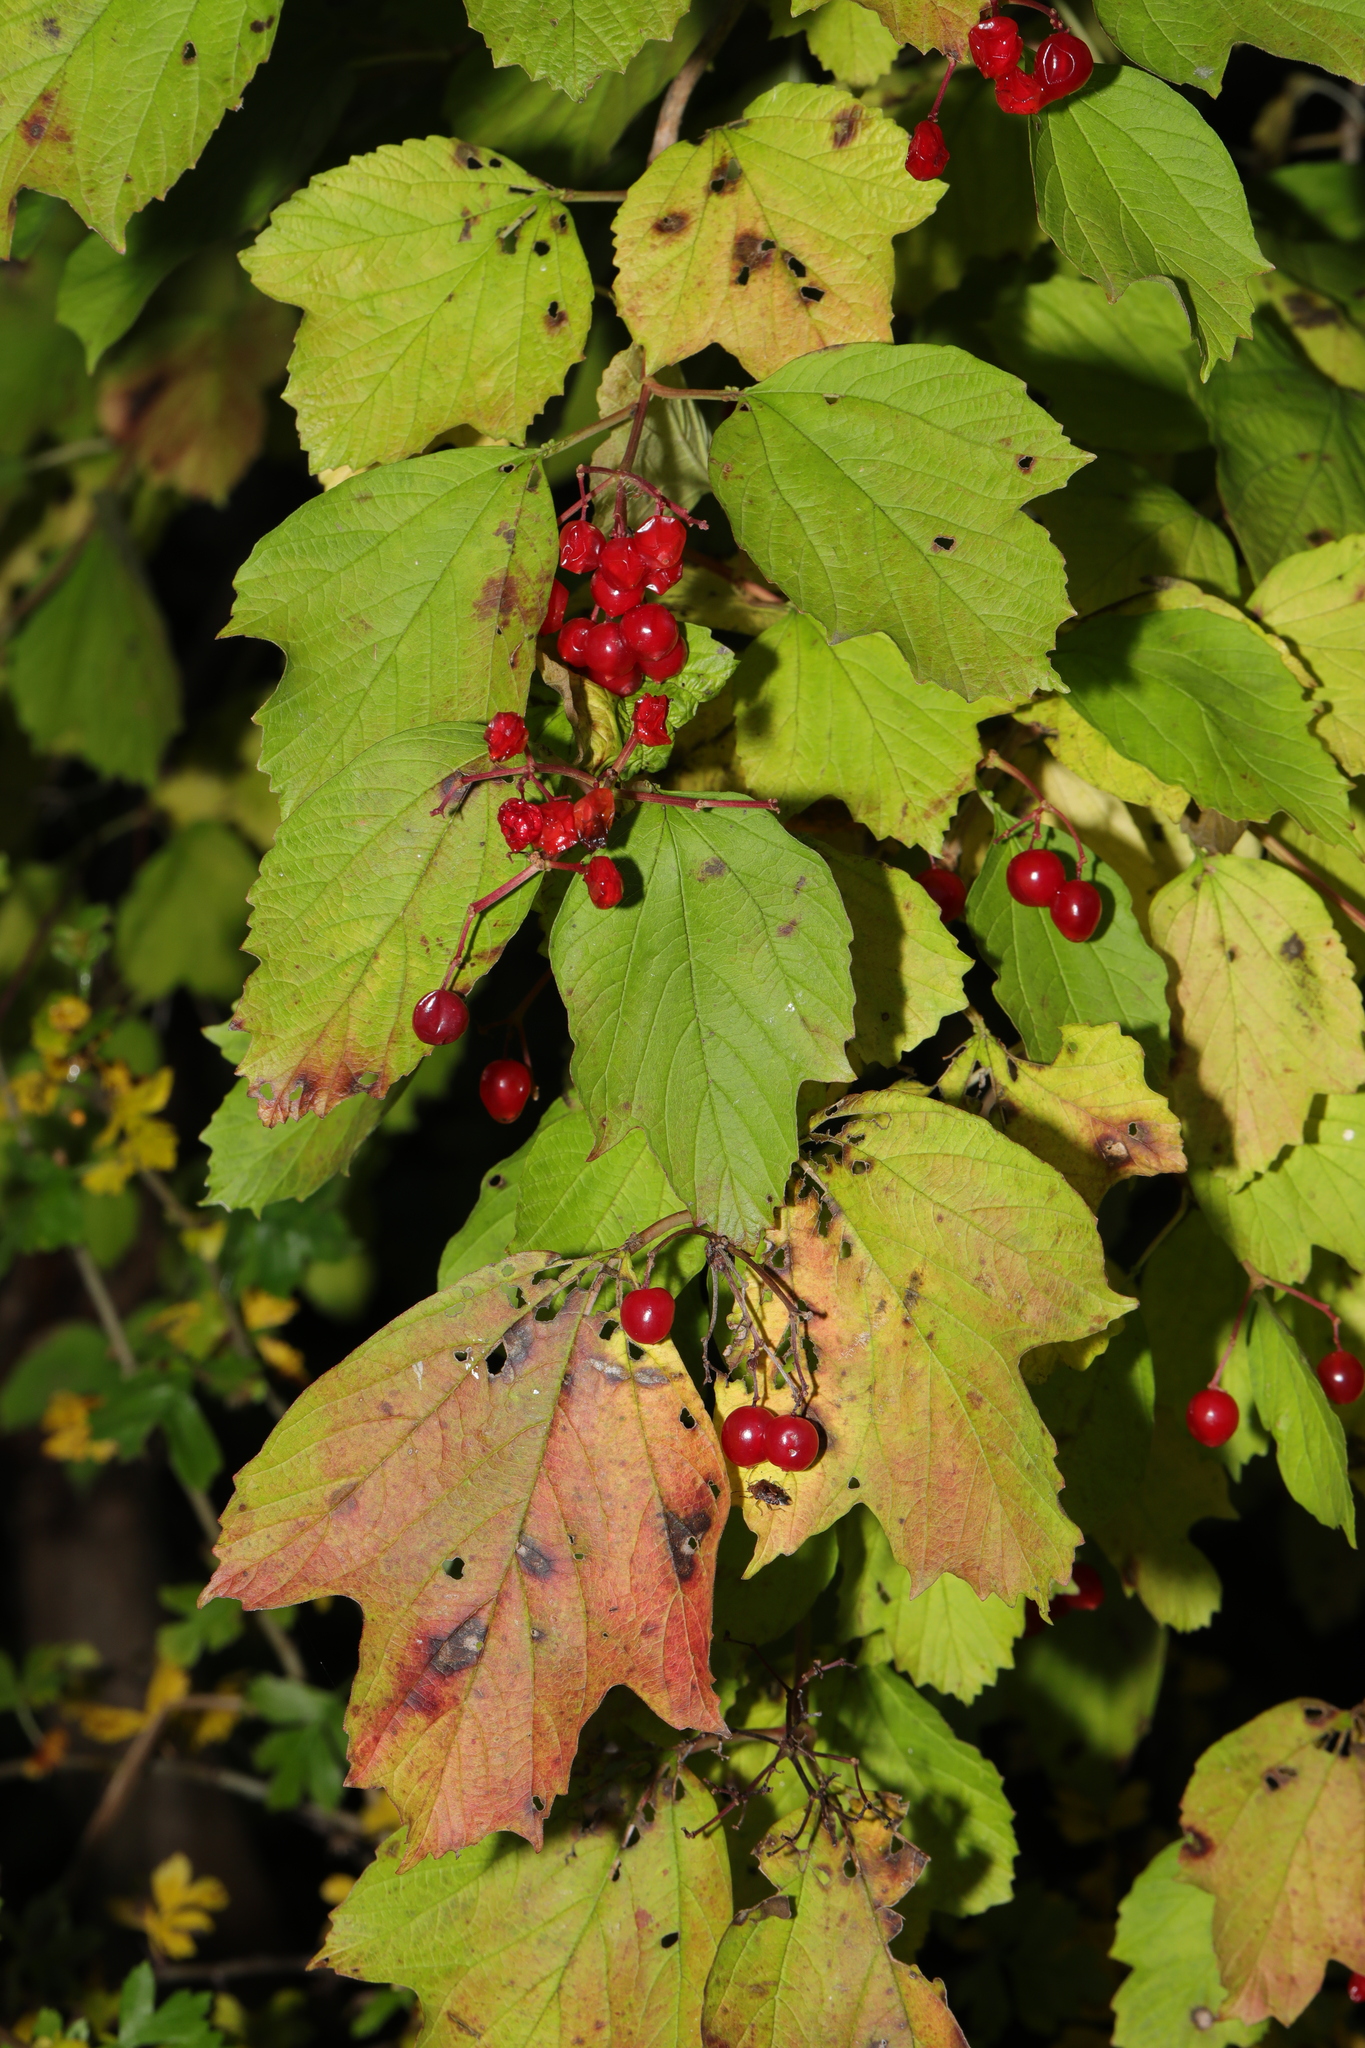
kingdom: Plantae
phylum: Tracheophyta
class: Magnoliopsida
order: Dipsacales
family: Viburnaceae
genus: Viburnum
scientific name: Viburnum opulus
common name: Guelder-rose
